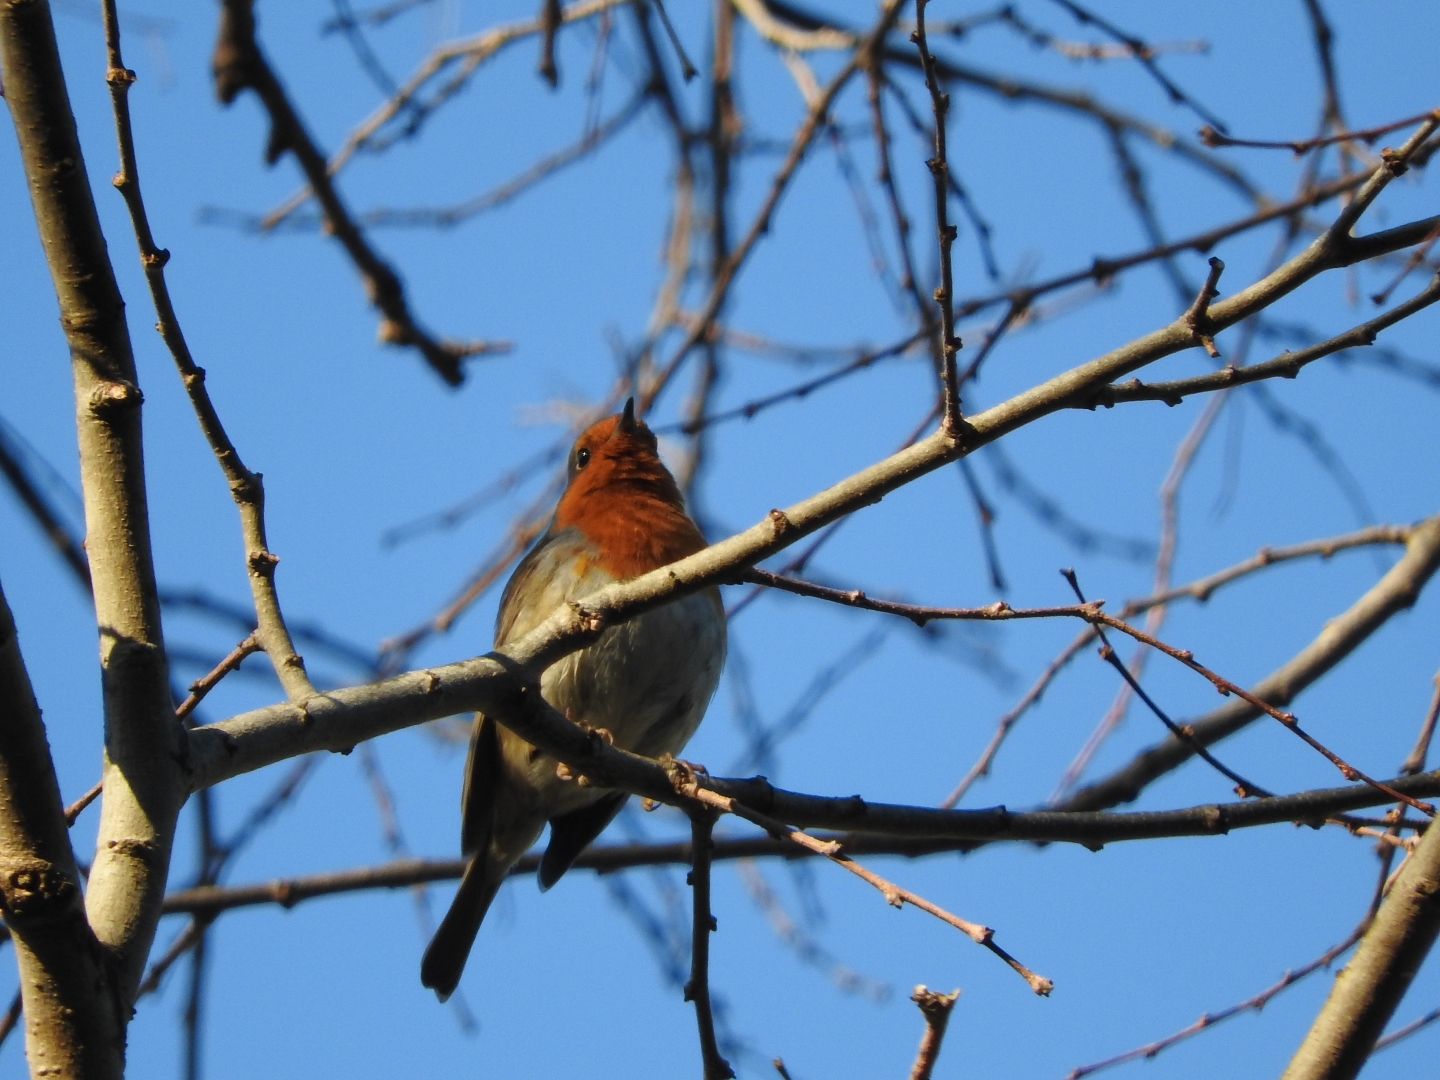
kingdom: Animalia
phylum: Chordata
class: Aves
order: Passeriformes
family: Muscicapidae
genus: Erithacus
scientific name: Erithacus rubecula
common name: European robin
